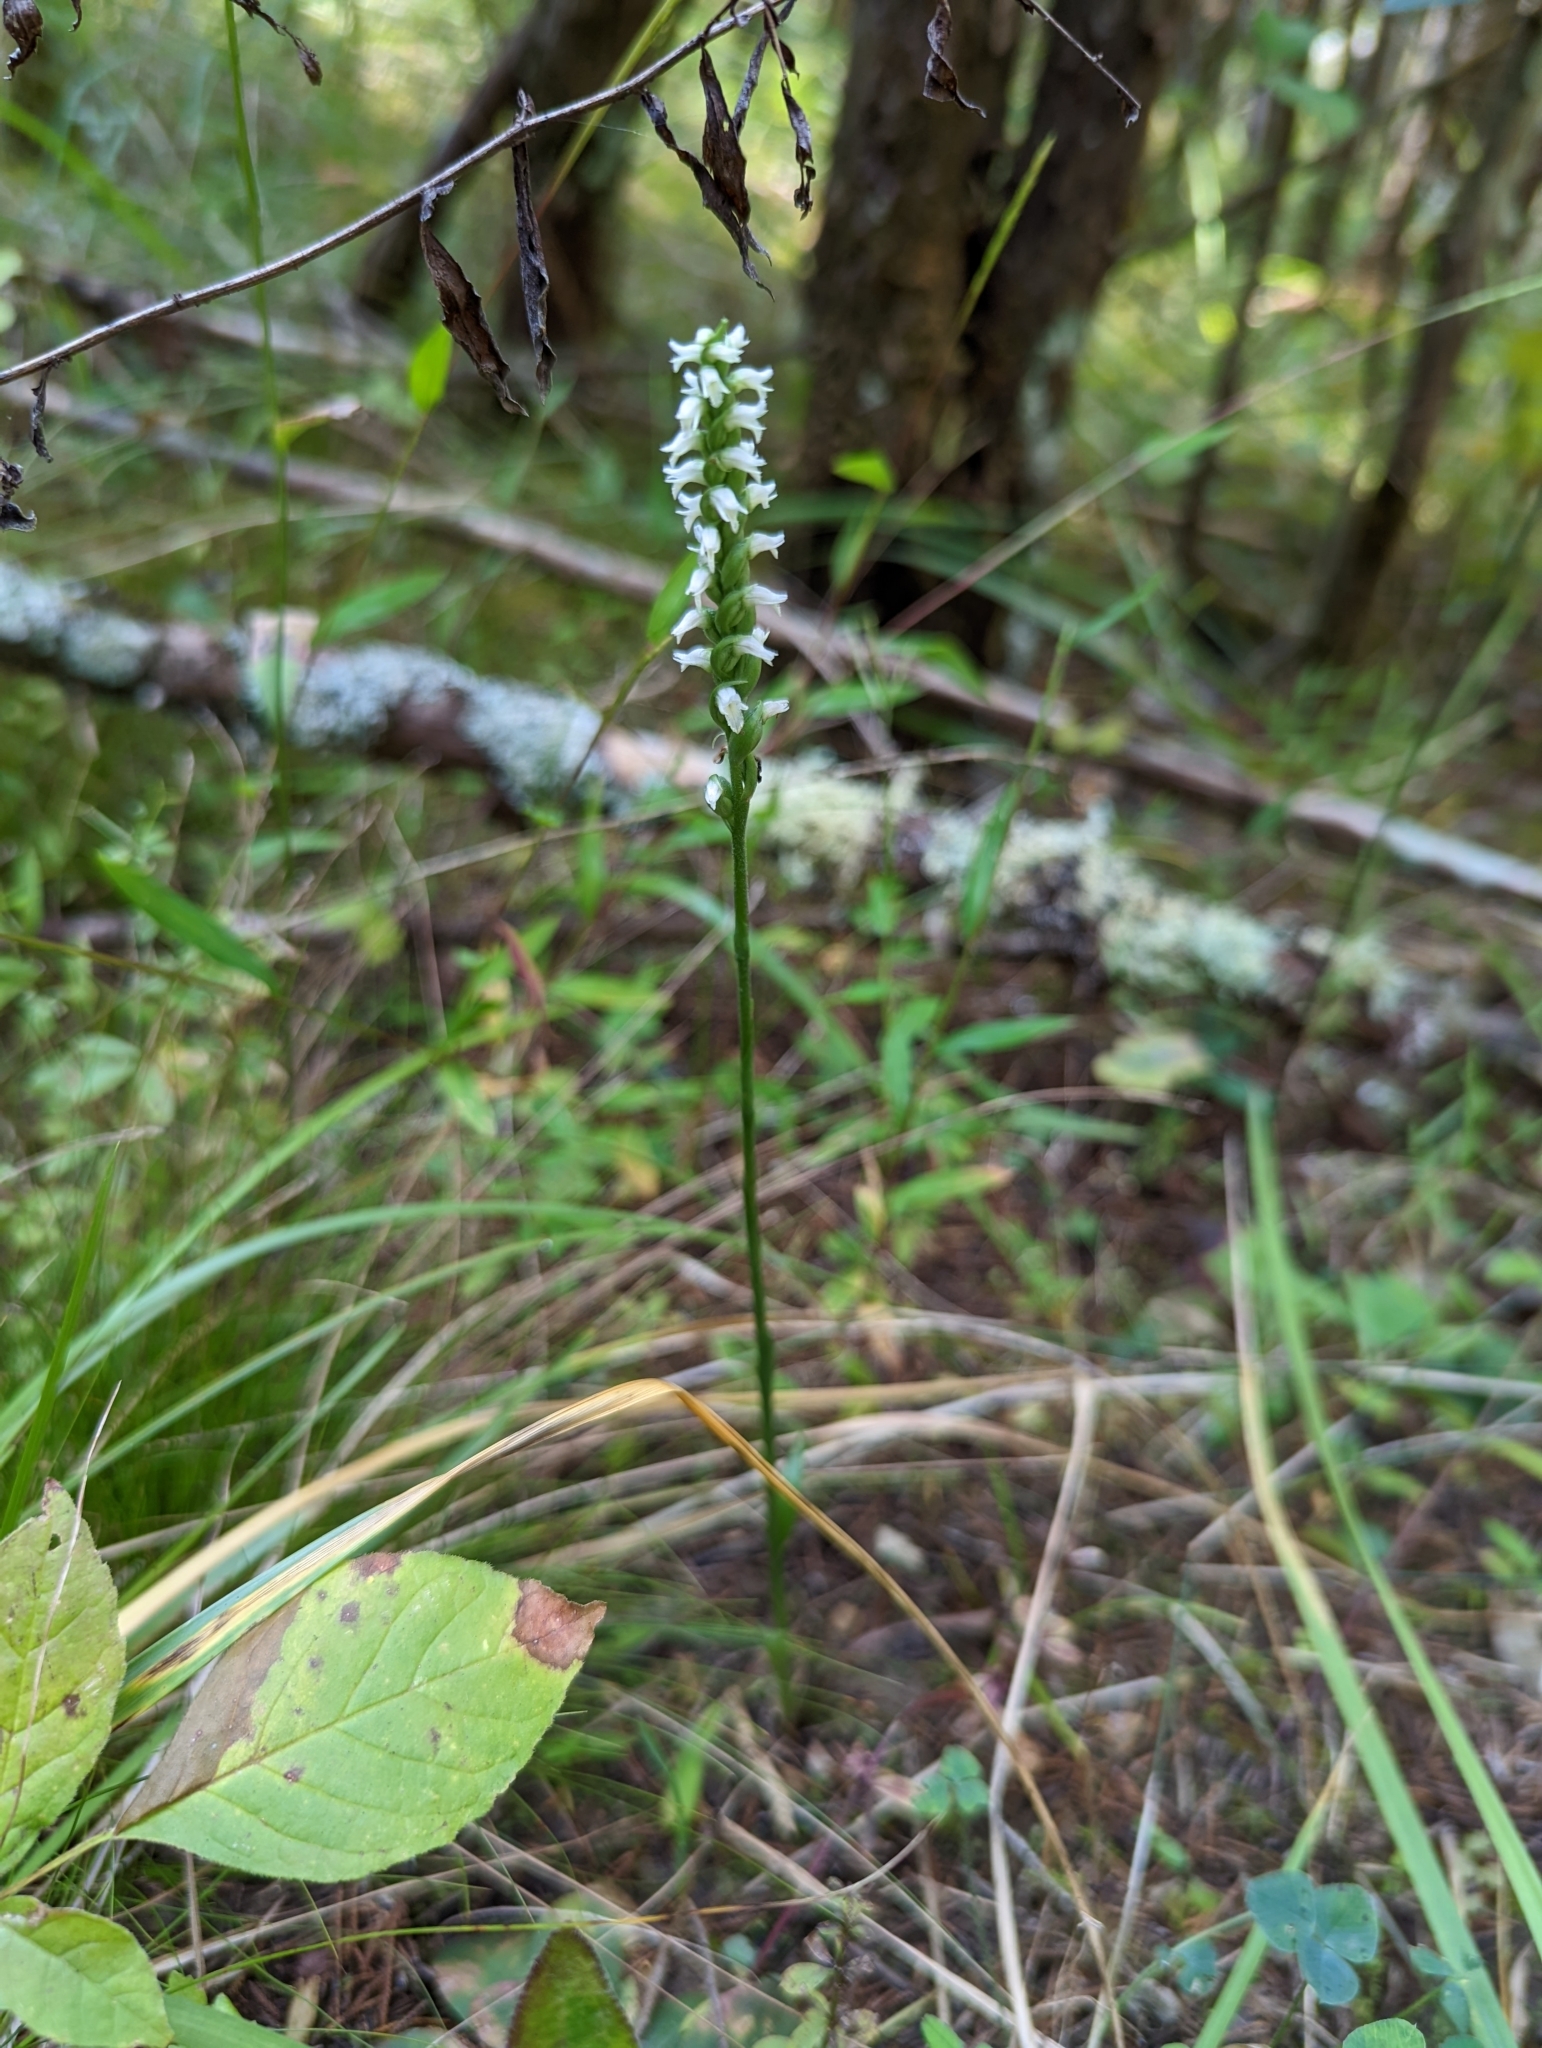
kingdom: Plantae
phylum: Tracheophyta
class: Liliopsida
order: Asparagales
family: Orchidaceae
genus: Spiranthes
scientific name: Spiranthes ovalis
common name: October ladies'-tresses
